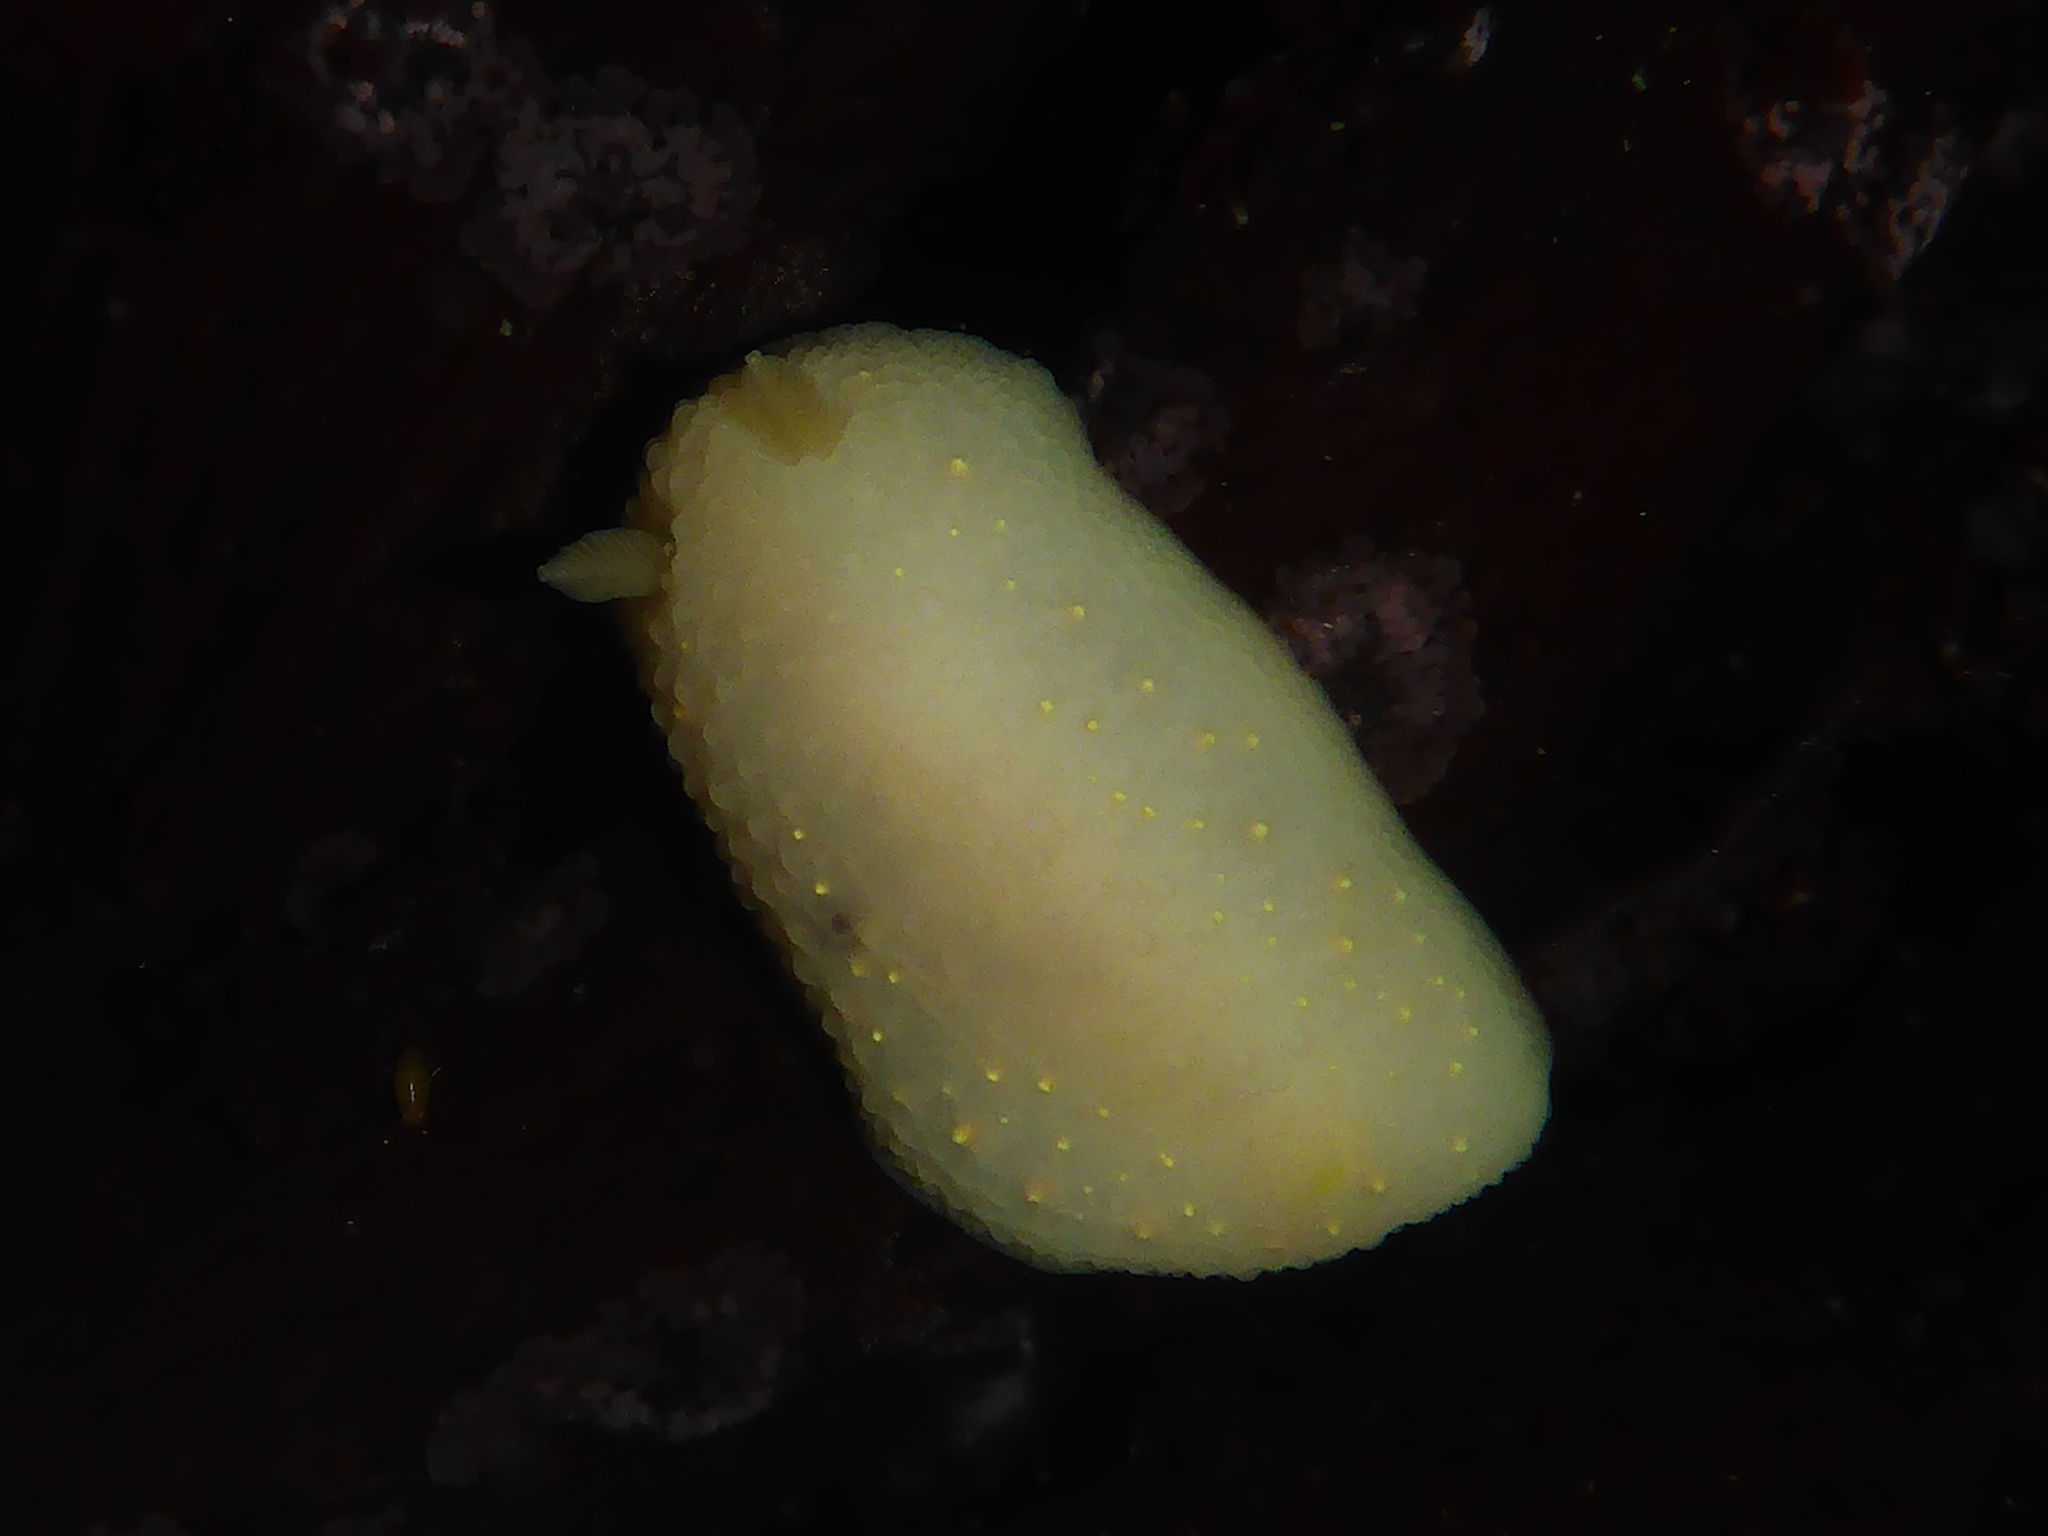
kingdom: Animalia
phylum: Mollusca
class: Gastropoda
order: Nudibranchia
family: Cadlinidae
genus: Cadlina
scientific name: Cadlina modesta
